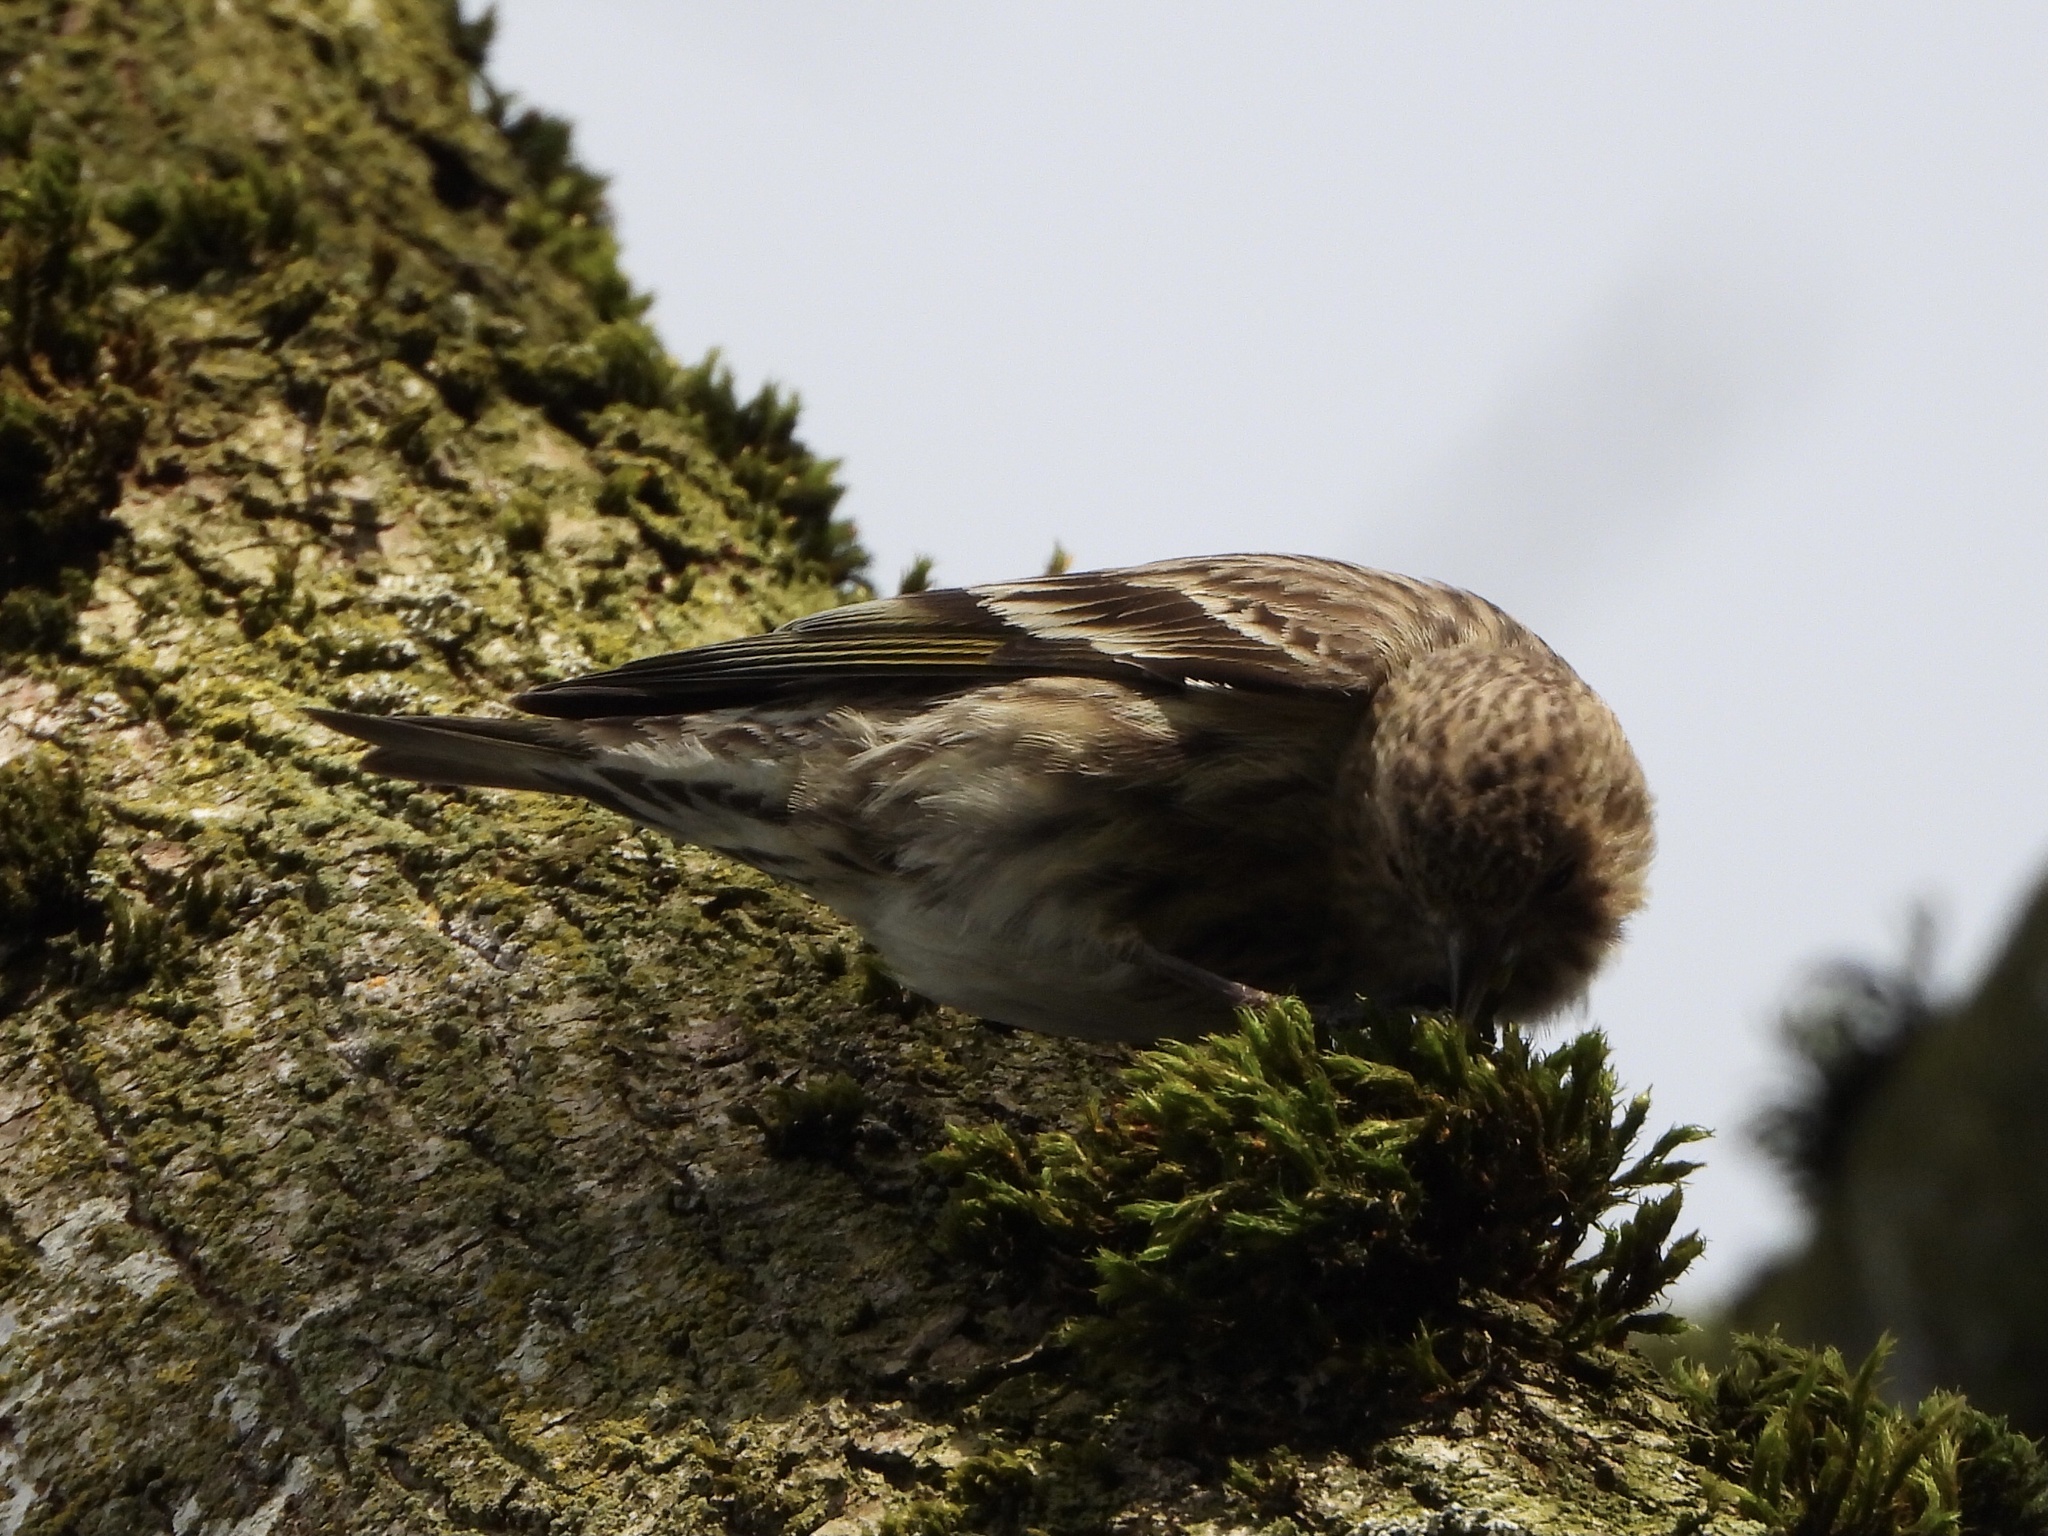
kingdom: Animalia
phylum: Chordata
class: Aves
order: Passeriformes
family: Fringillidae
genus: Spinus
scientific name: Spinus pinus
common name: Pine siskin
